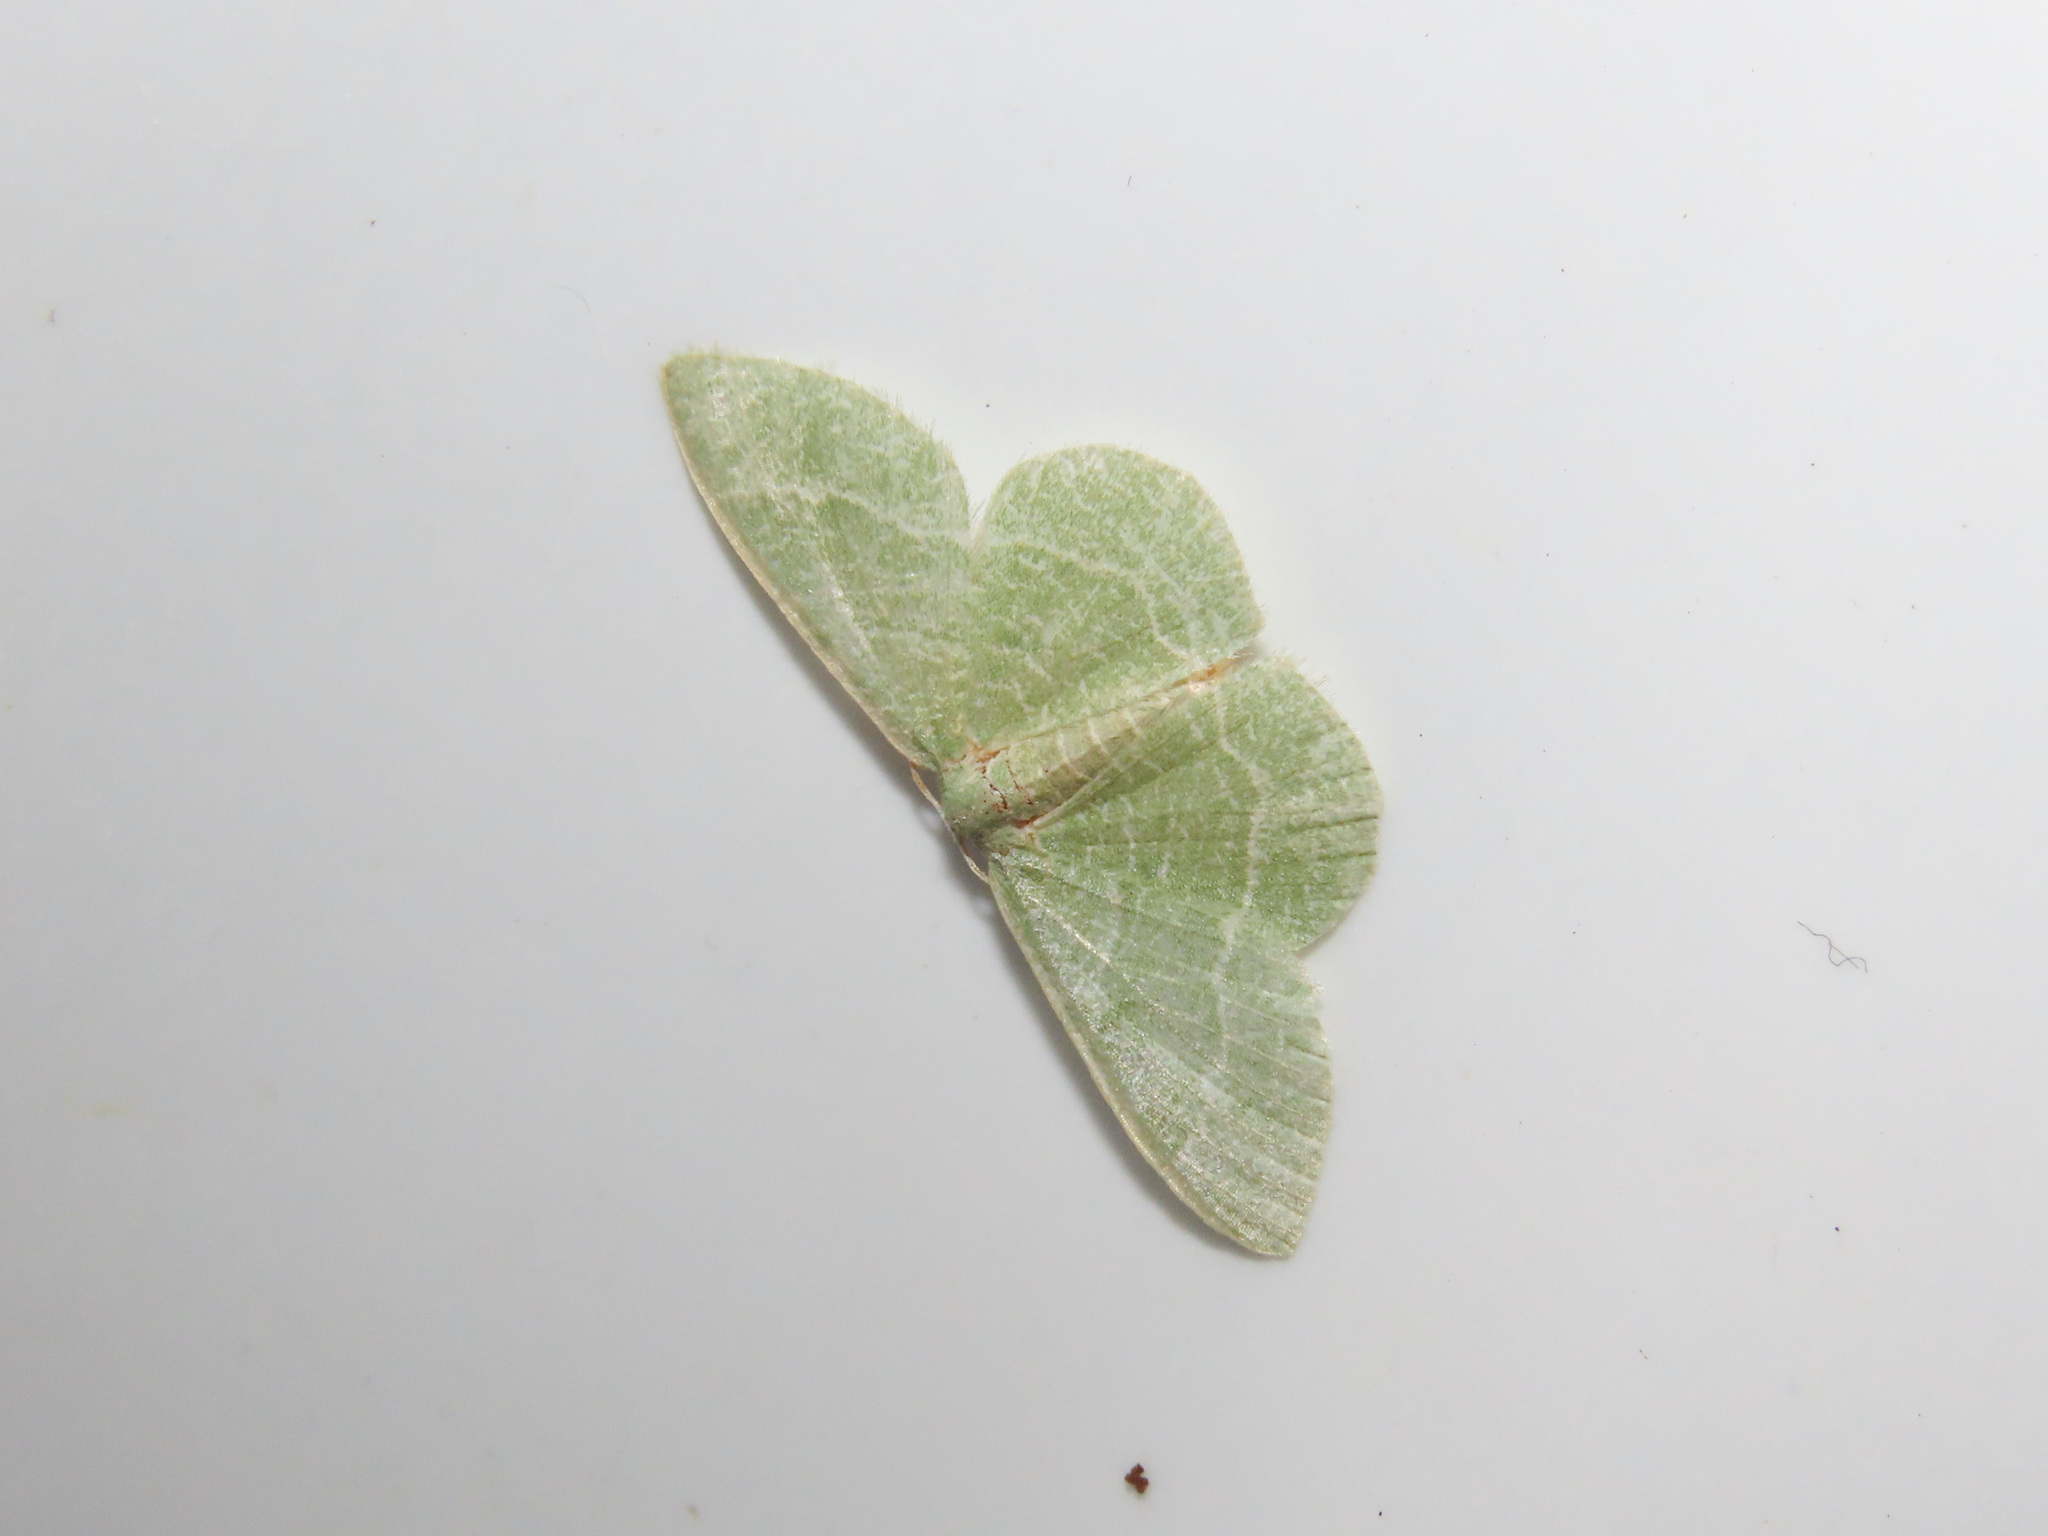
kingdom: Animalia
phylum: Arthropoda
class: Insecta
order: Lepidoptera
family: Geometridae
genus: Chlorissa
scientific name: Chlorissa etruscaria
